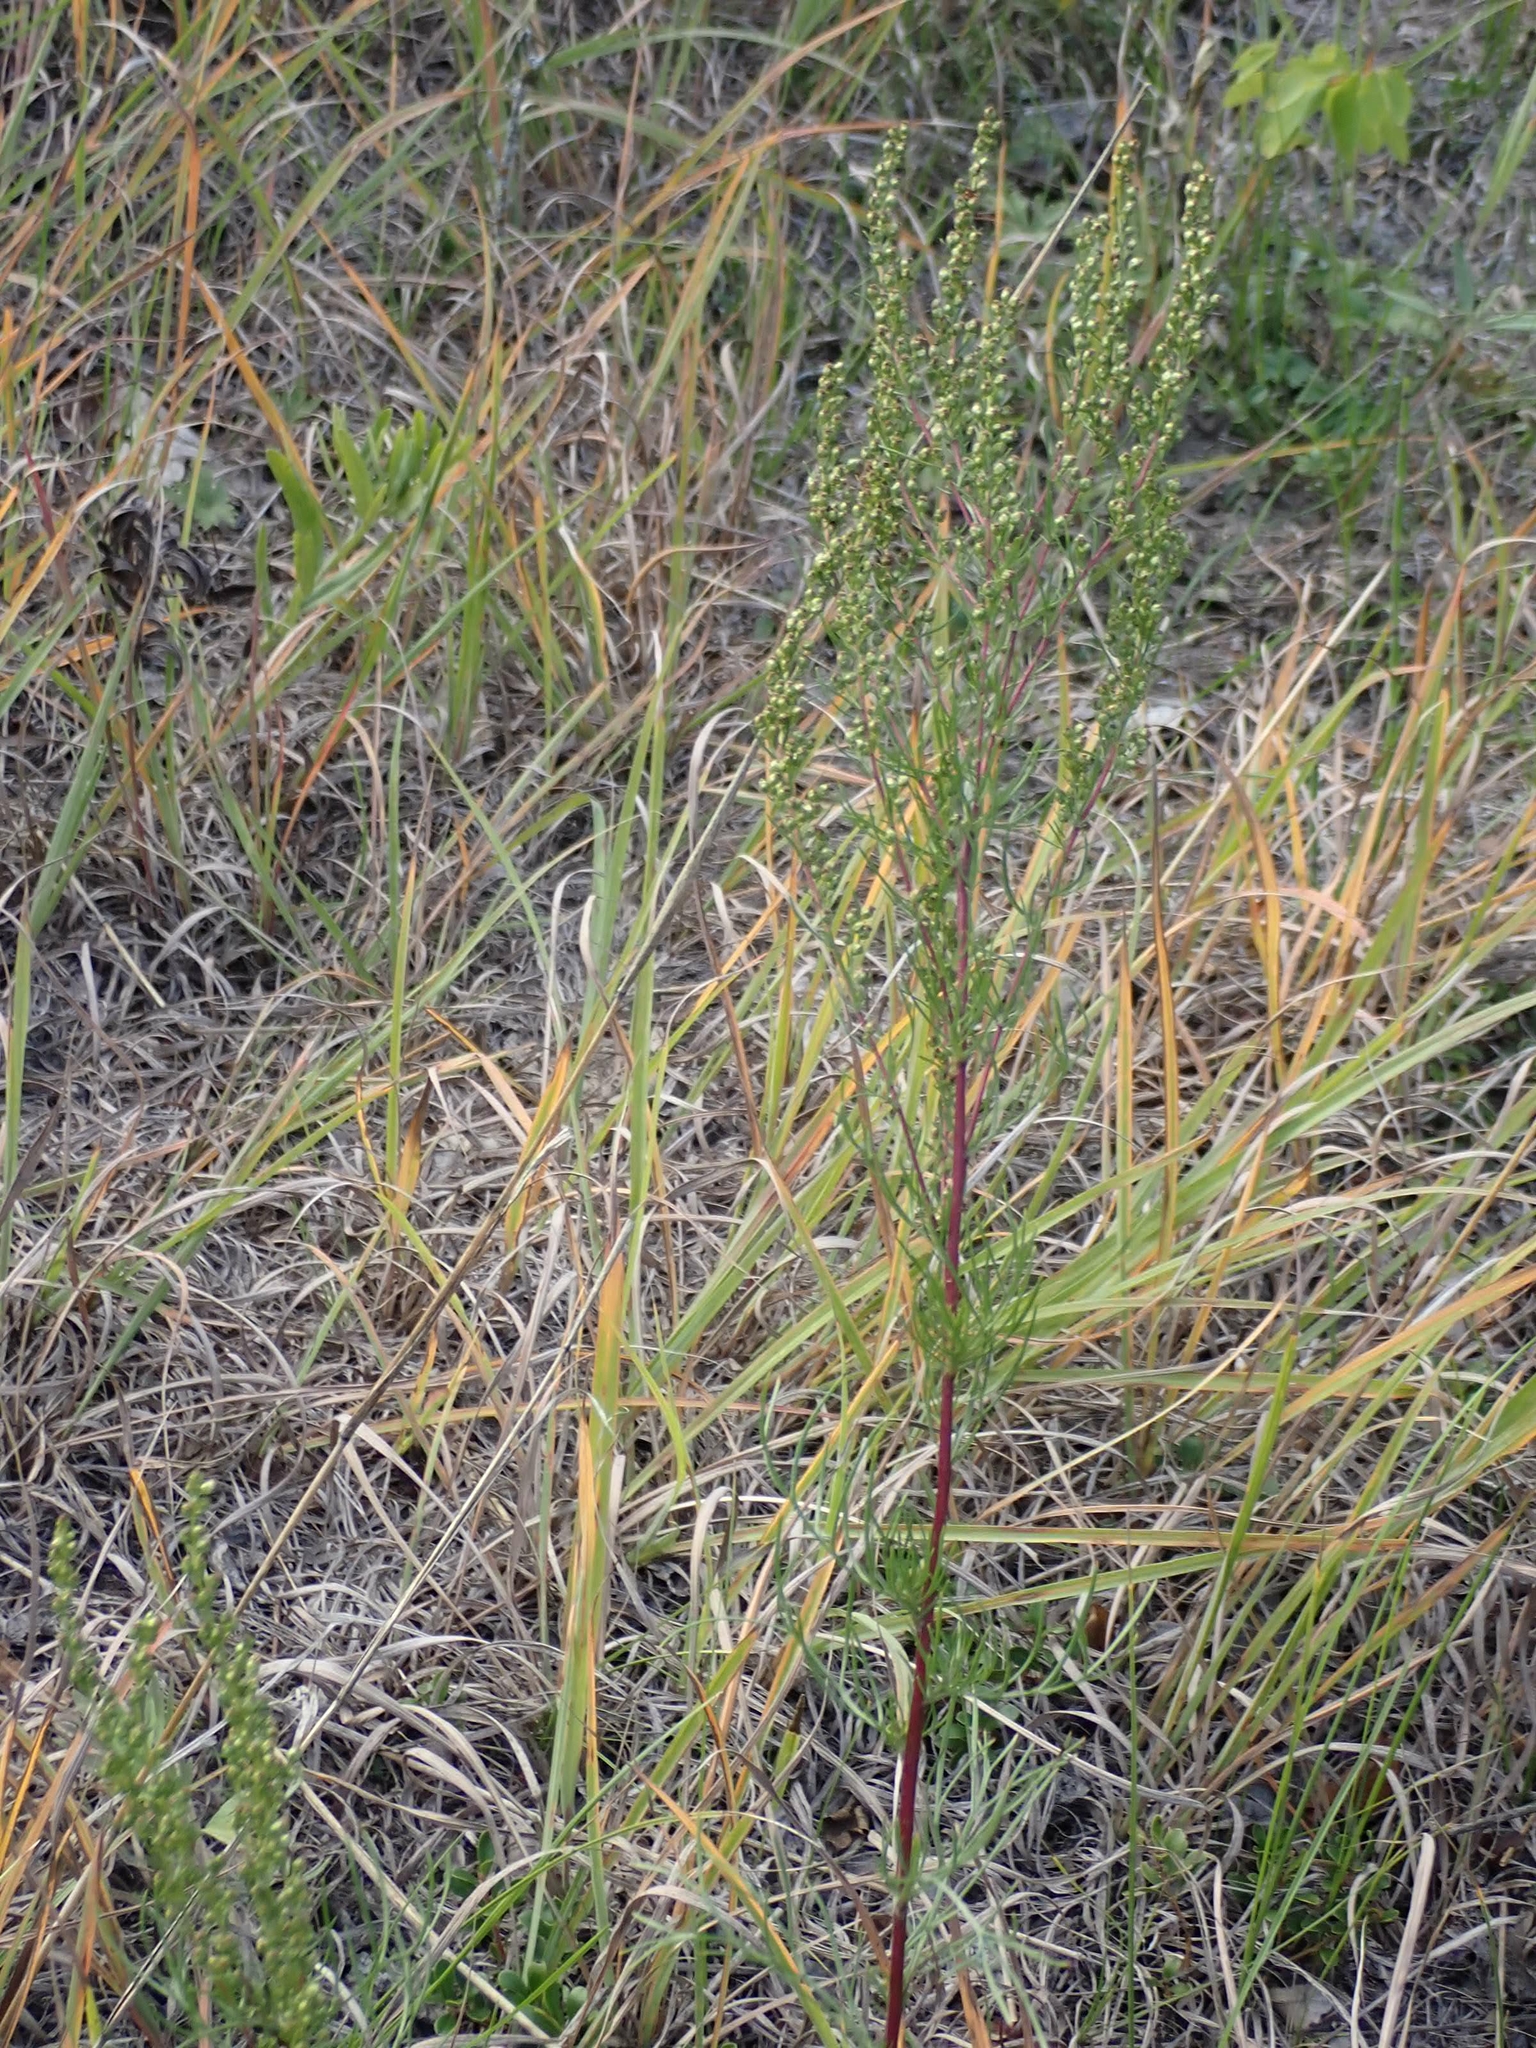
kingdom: Plantae
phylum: Tracheophyta
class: Magnoliopsida
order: Asterales
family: Asteraceae
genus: Artemisia
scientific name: Artemisia campestris
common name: Field wormwood
